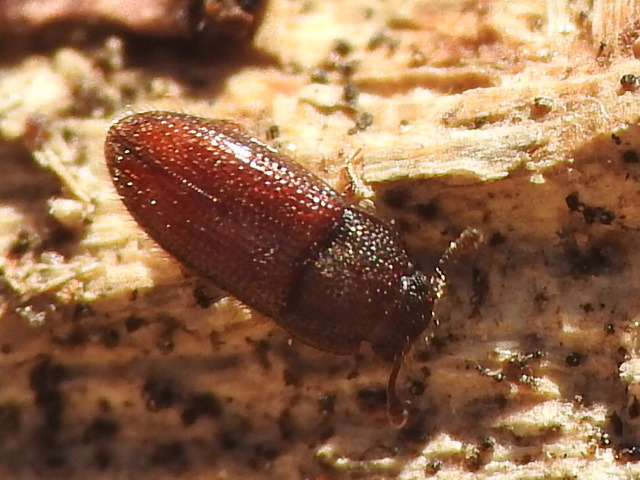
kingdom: Animalia
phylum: Arthropoda
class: Insecta
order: Coleoptera
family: Biphyllidae
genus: Diplocoelus
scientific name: Diplocoelus rudis
